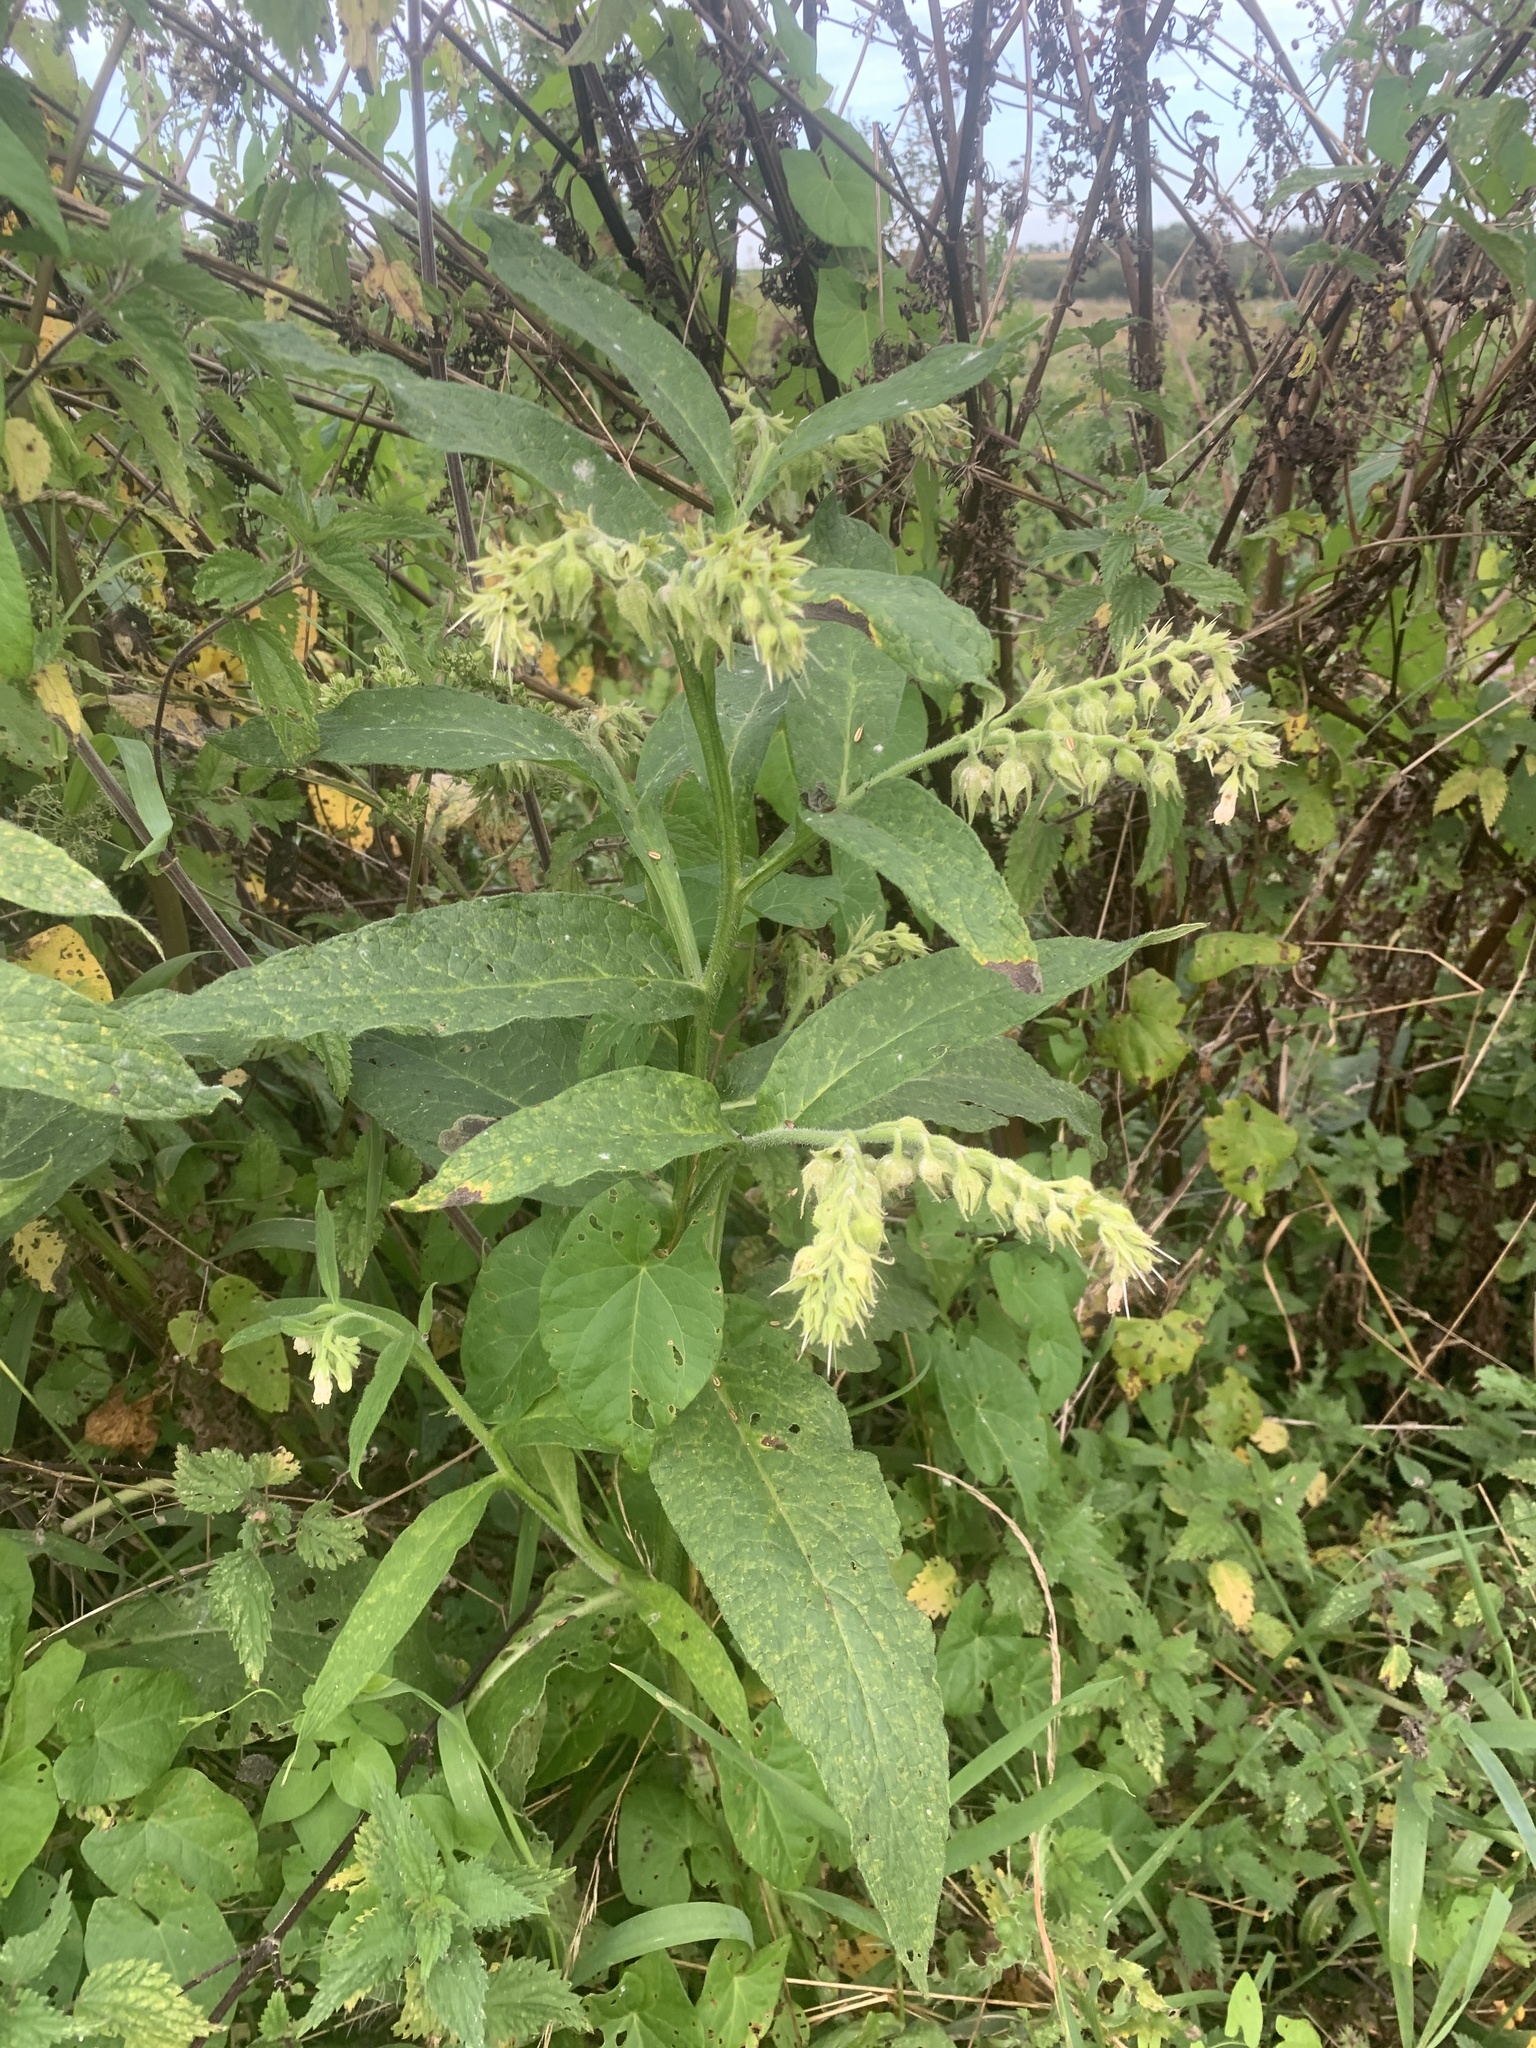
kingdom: Plantae
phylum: Tracheophyta
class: Magnoliopsida
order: Boraginales
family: Boraginaceae
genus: Symphytum
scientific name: Symphytum officinale
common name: Common comfrey
